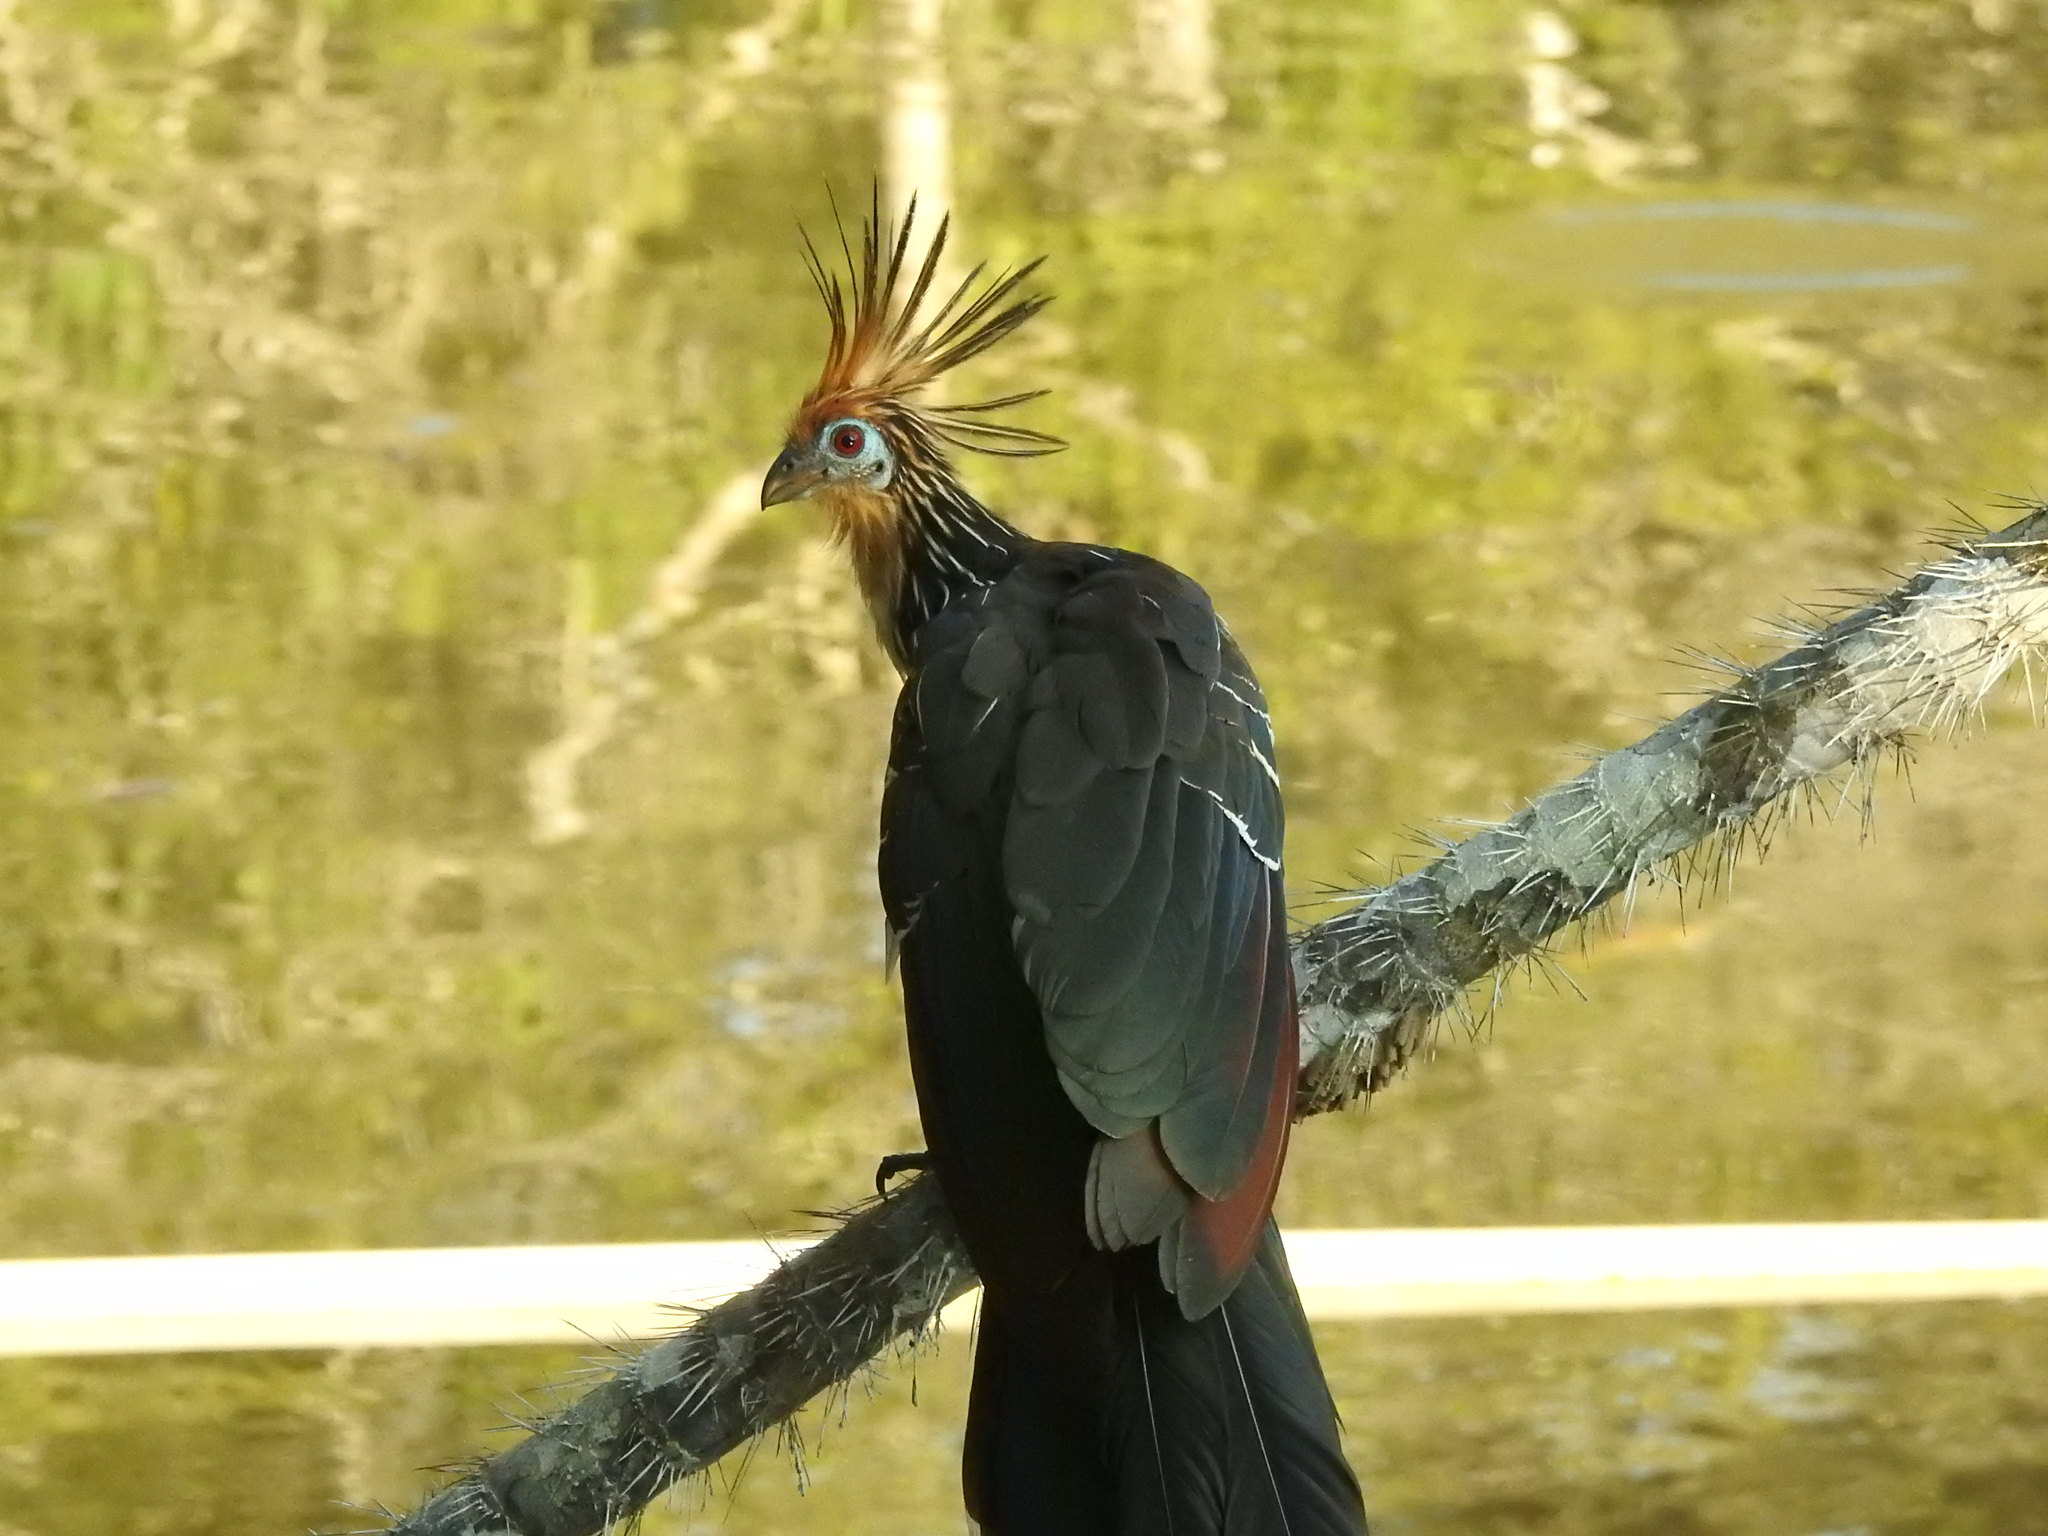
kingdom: Animalia
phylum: Chordata
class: Aves
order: Opisthocomiformes
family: Opisthocomidae
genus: Opisthocomus
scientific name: Opisthocomus hoazin
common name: Hoatzin
